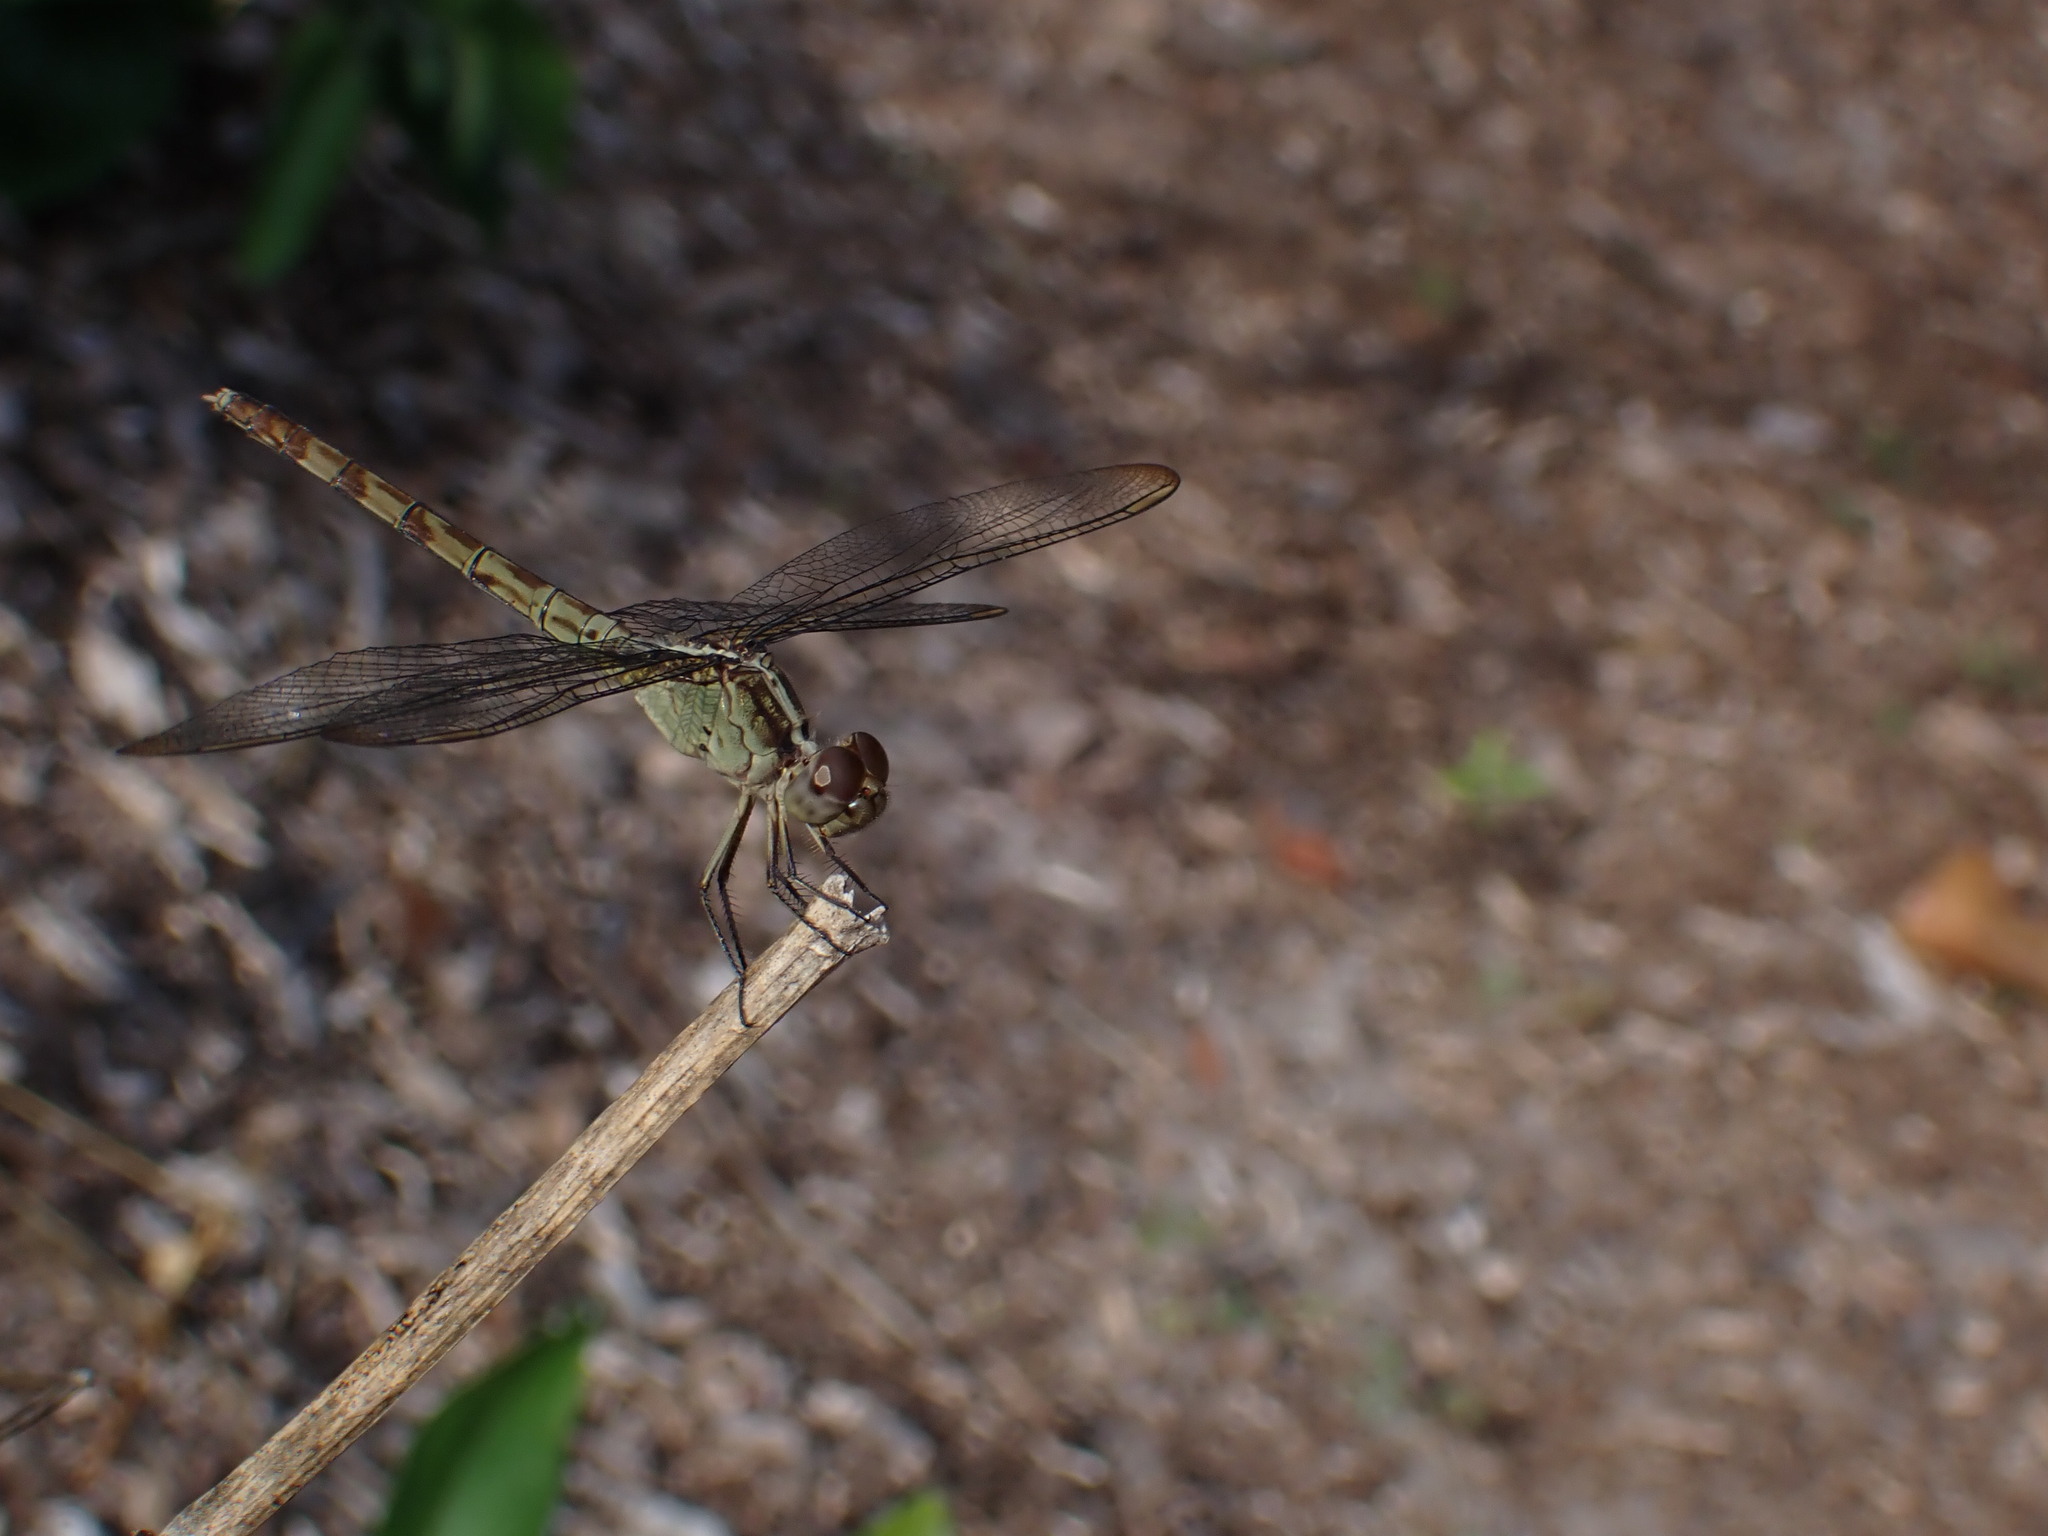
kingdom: Animalia
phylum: Arthropoda
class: Insecta
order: Odonata
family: Libellulidae
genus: Erythrodiplax
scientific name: Erythrodiplax umbrata
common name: Band-winged dragonlet
